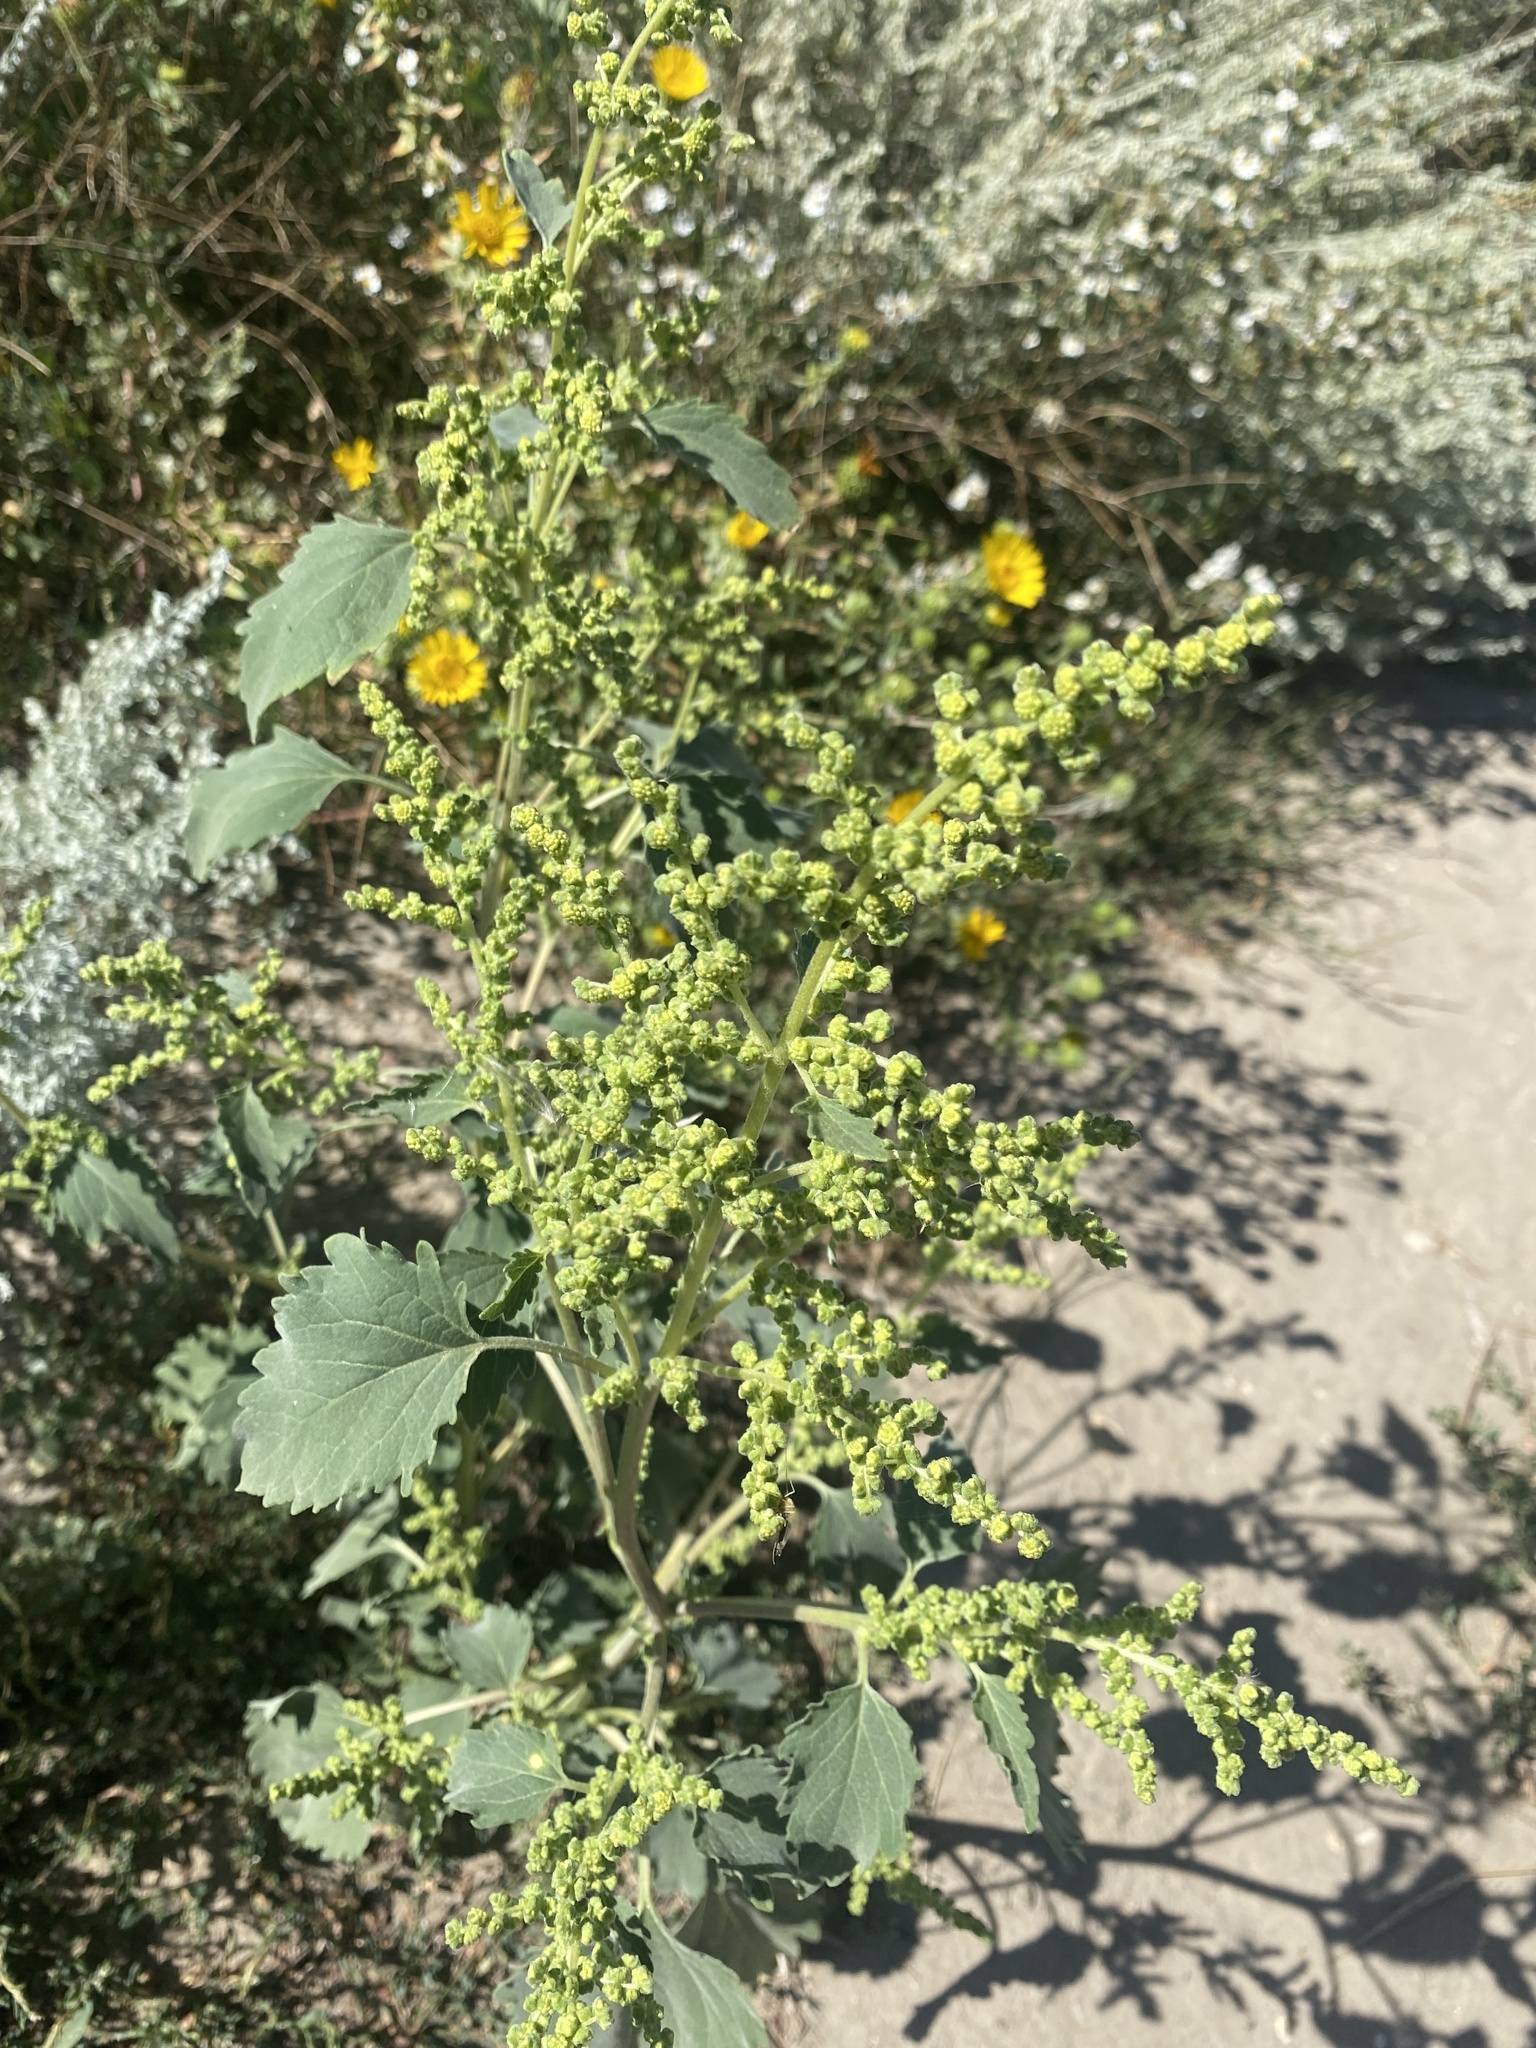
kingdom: Plantae
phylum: Tracheophyta
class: Magnoliopsida
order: Asterales
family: Asteraceae
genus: Cyclachaena
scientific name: Cyclachaena xanthiifolia
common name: Giant sumpweed
